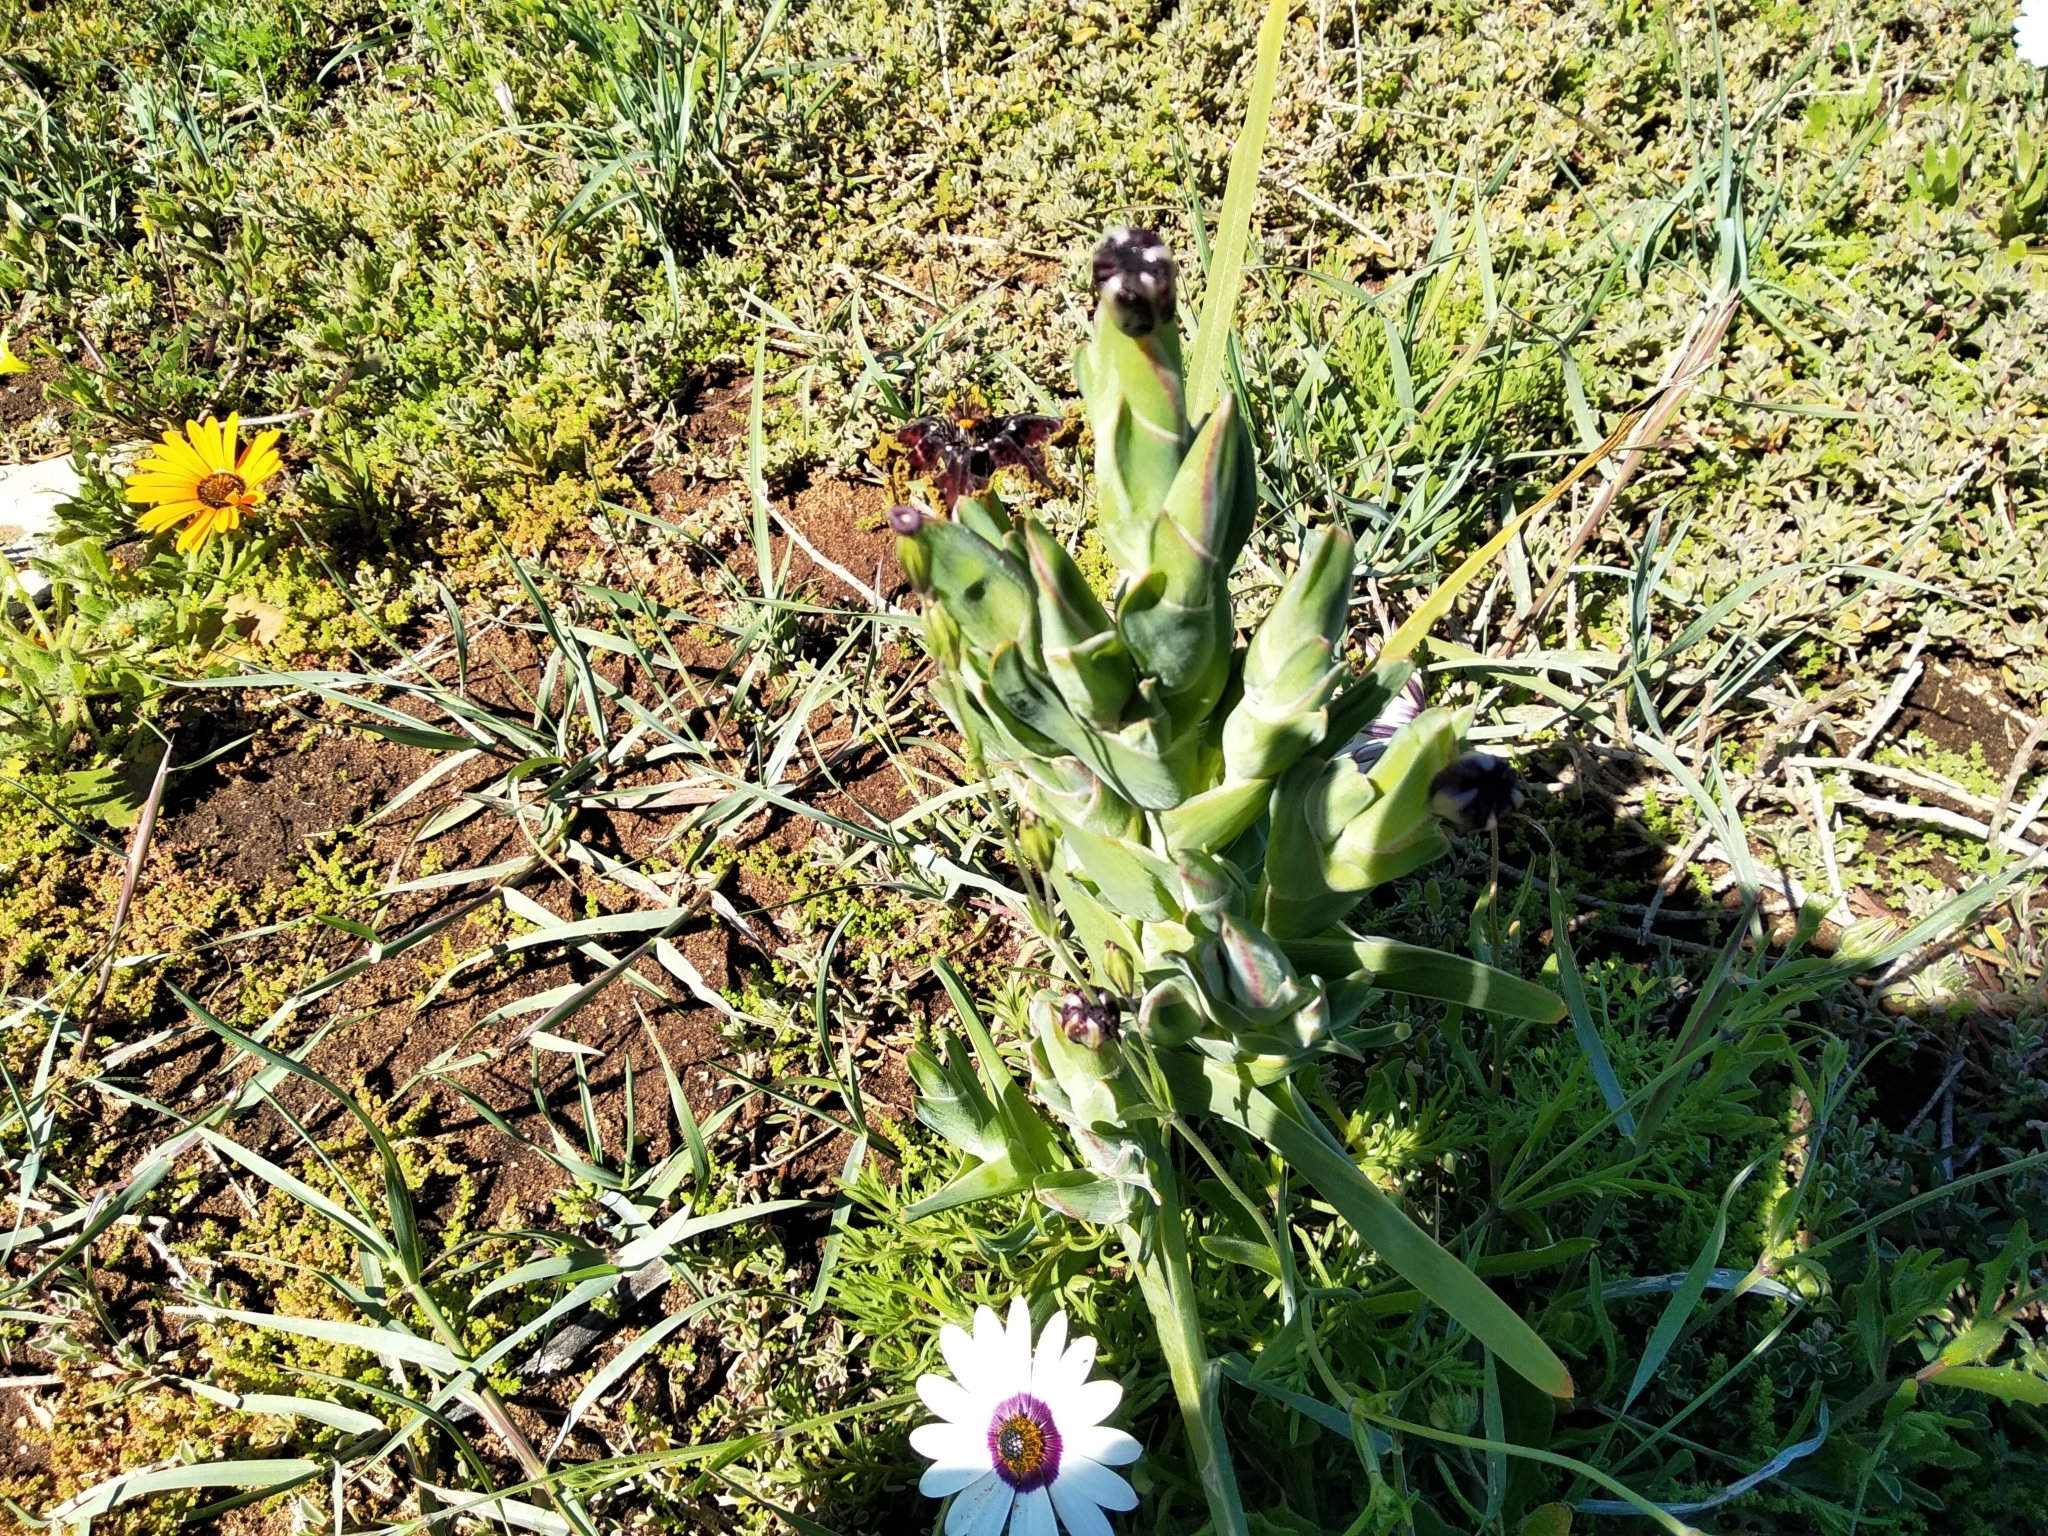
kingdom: Plantae
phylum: Tracheophyta
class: Liliopsida
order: Asparagales
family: Iridaceae
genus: Ferraria
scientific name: Ferraria crispa
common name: Black-flag
